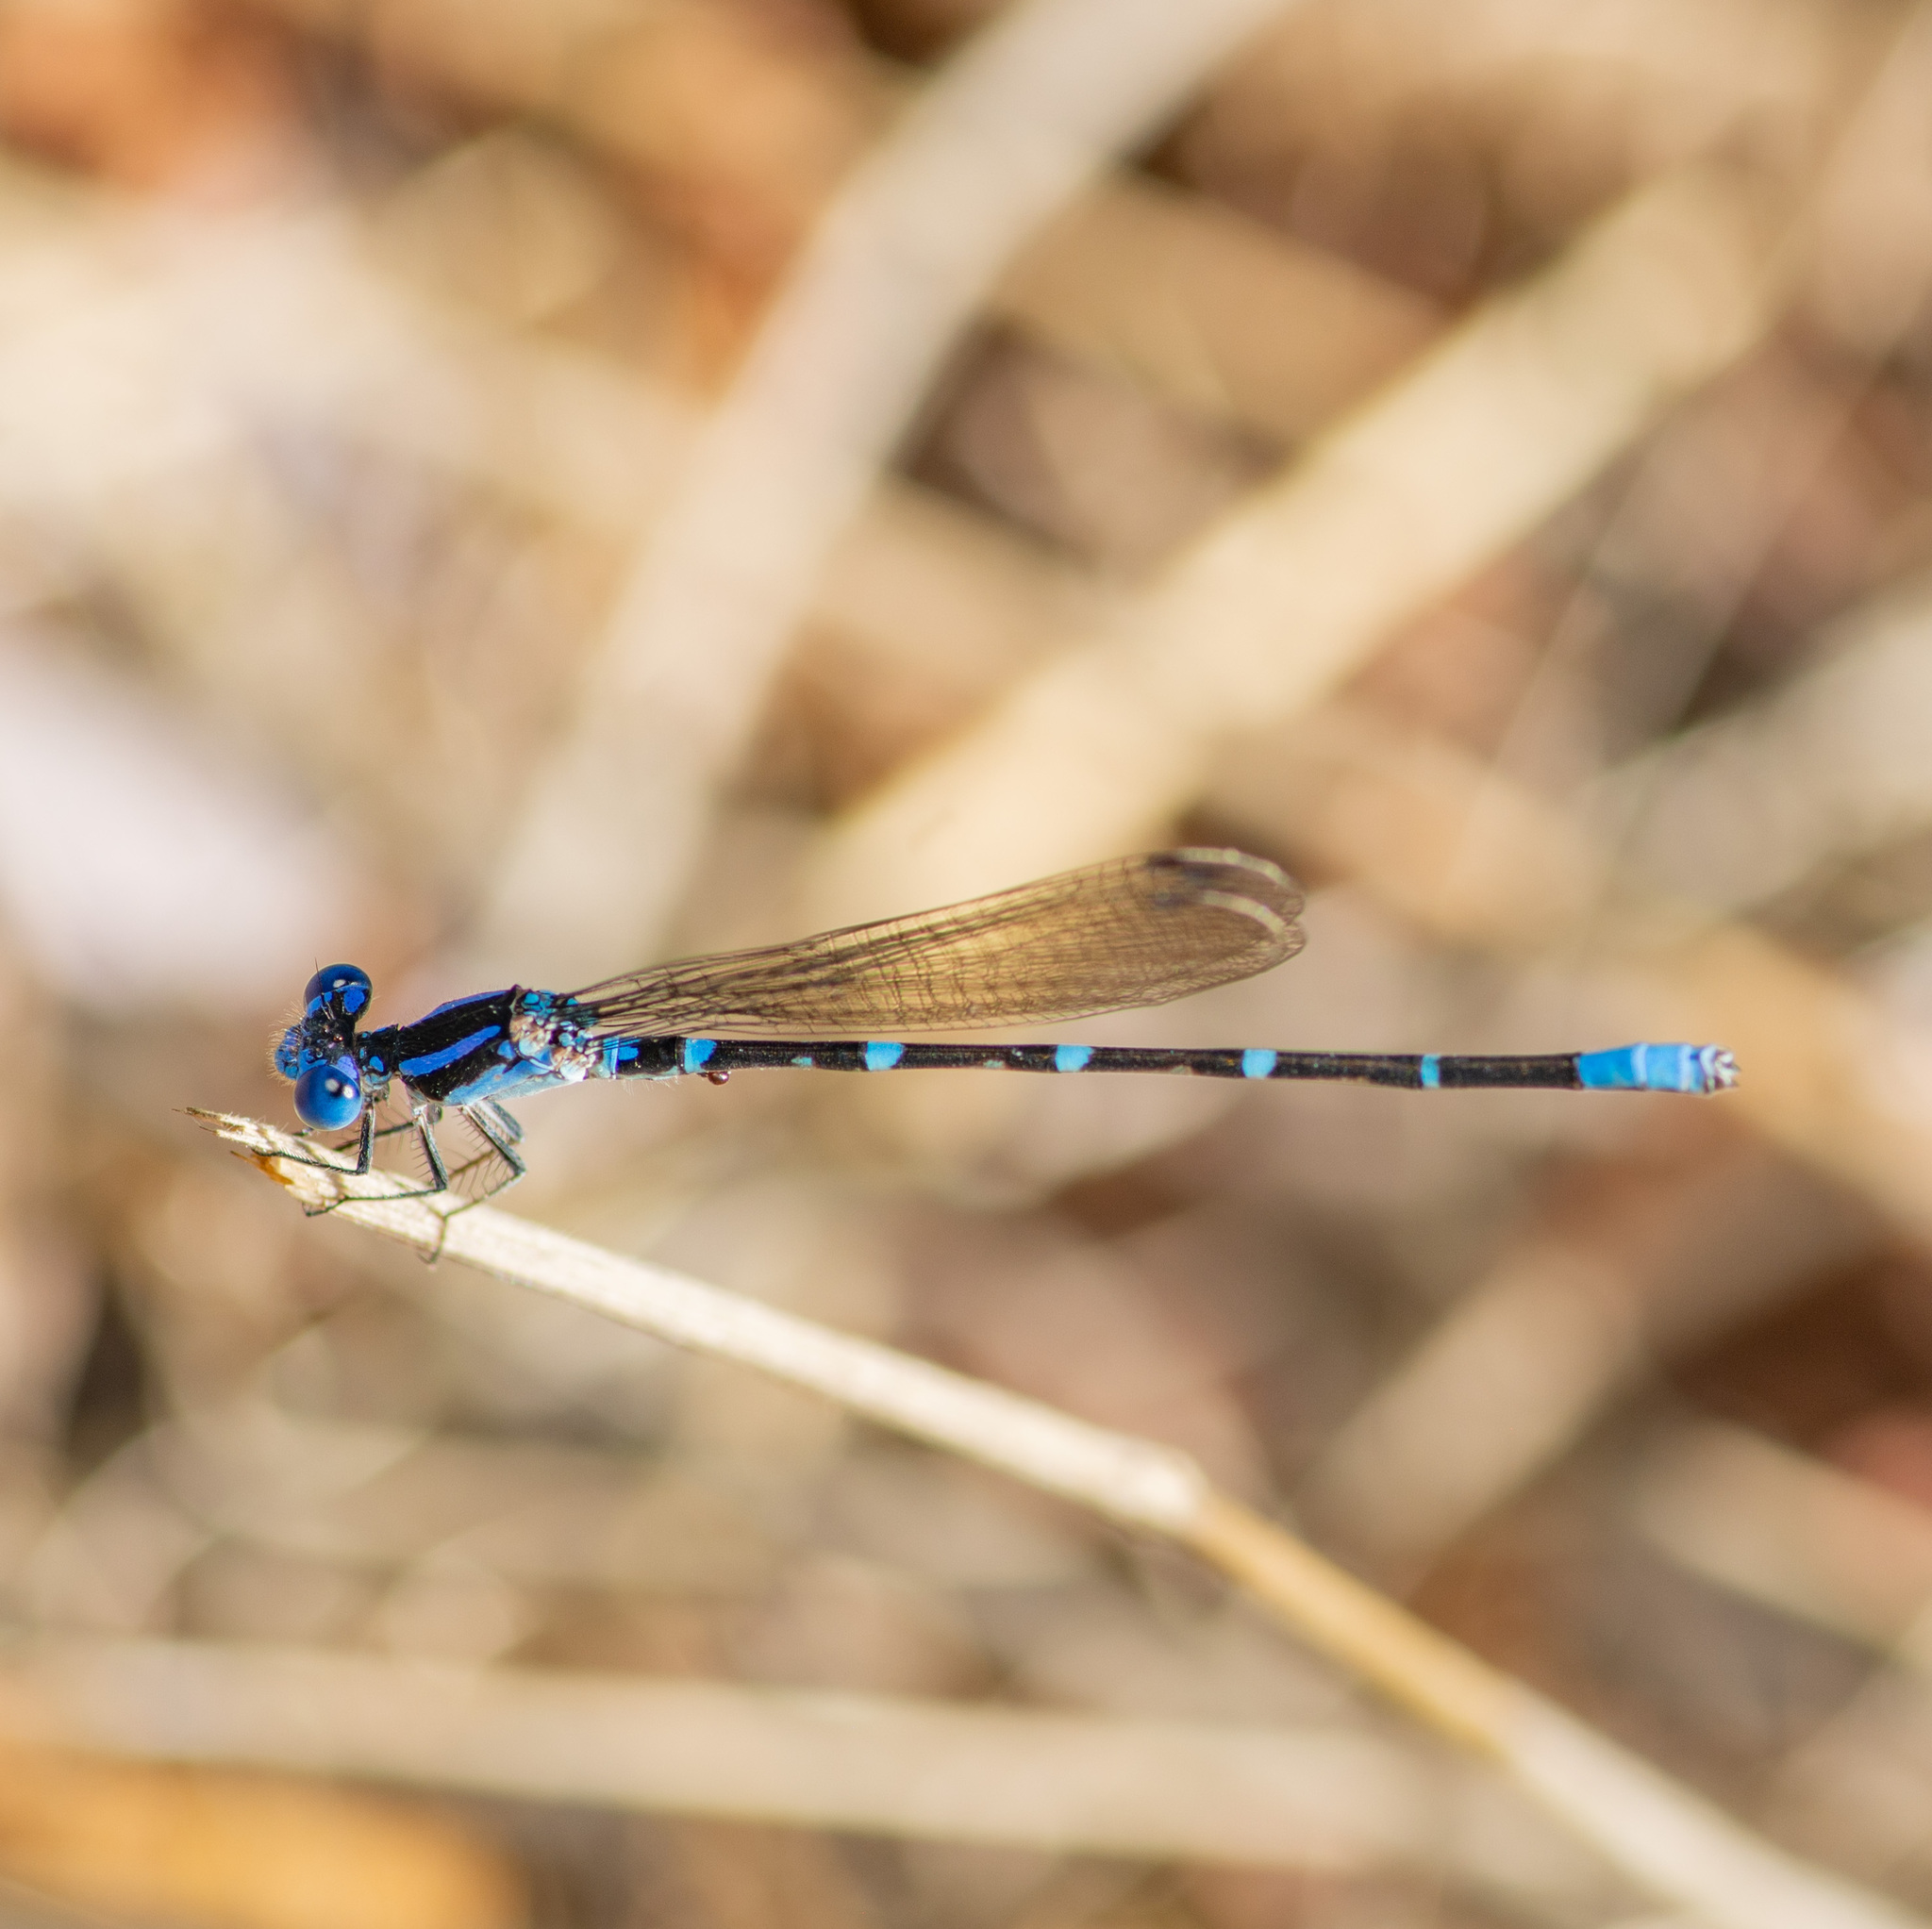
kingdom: Animalia
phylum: Arthropoda
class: Insecta
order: Odonata
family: Coenagrionidae
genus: Argia
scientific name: Argia sedula
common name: Blue-ringed dancer
